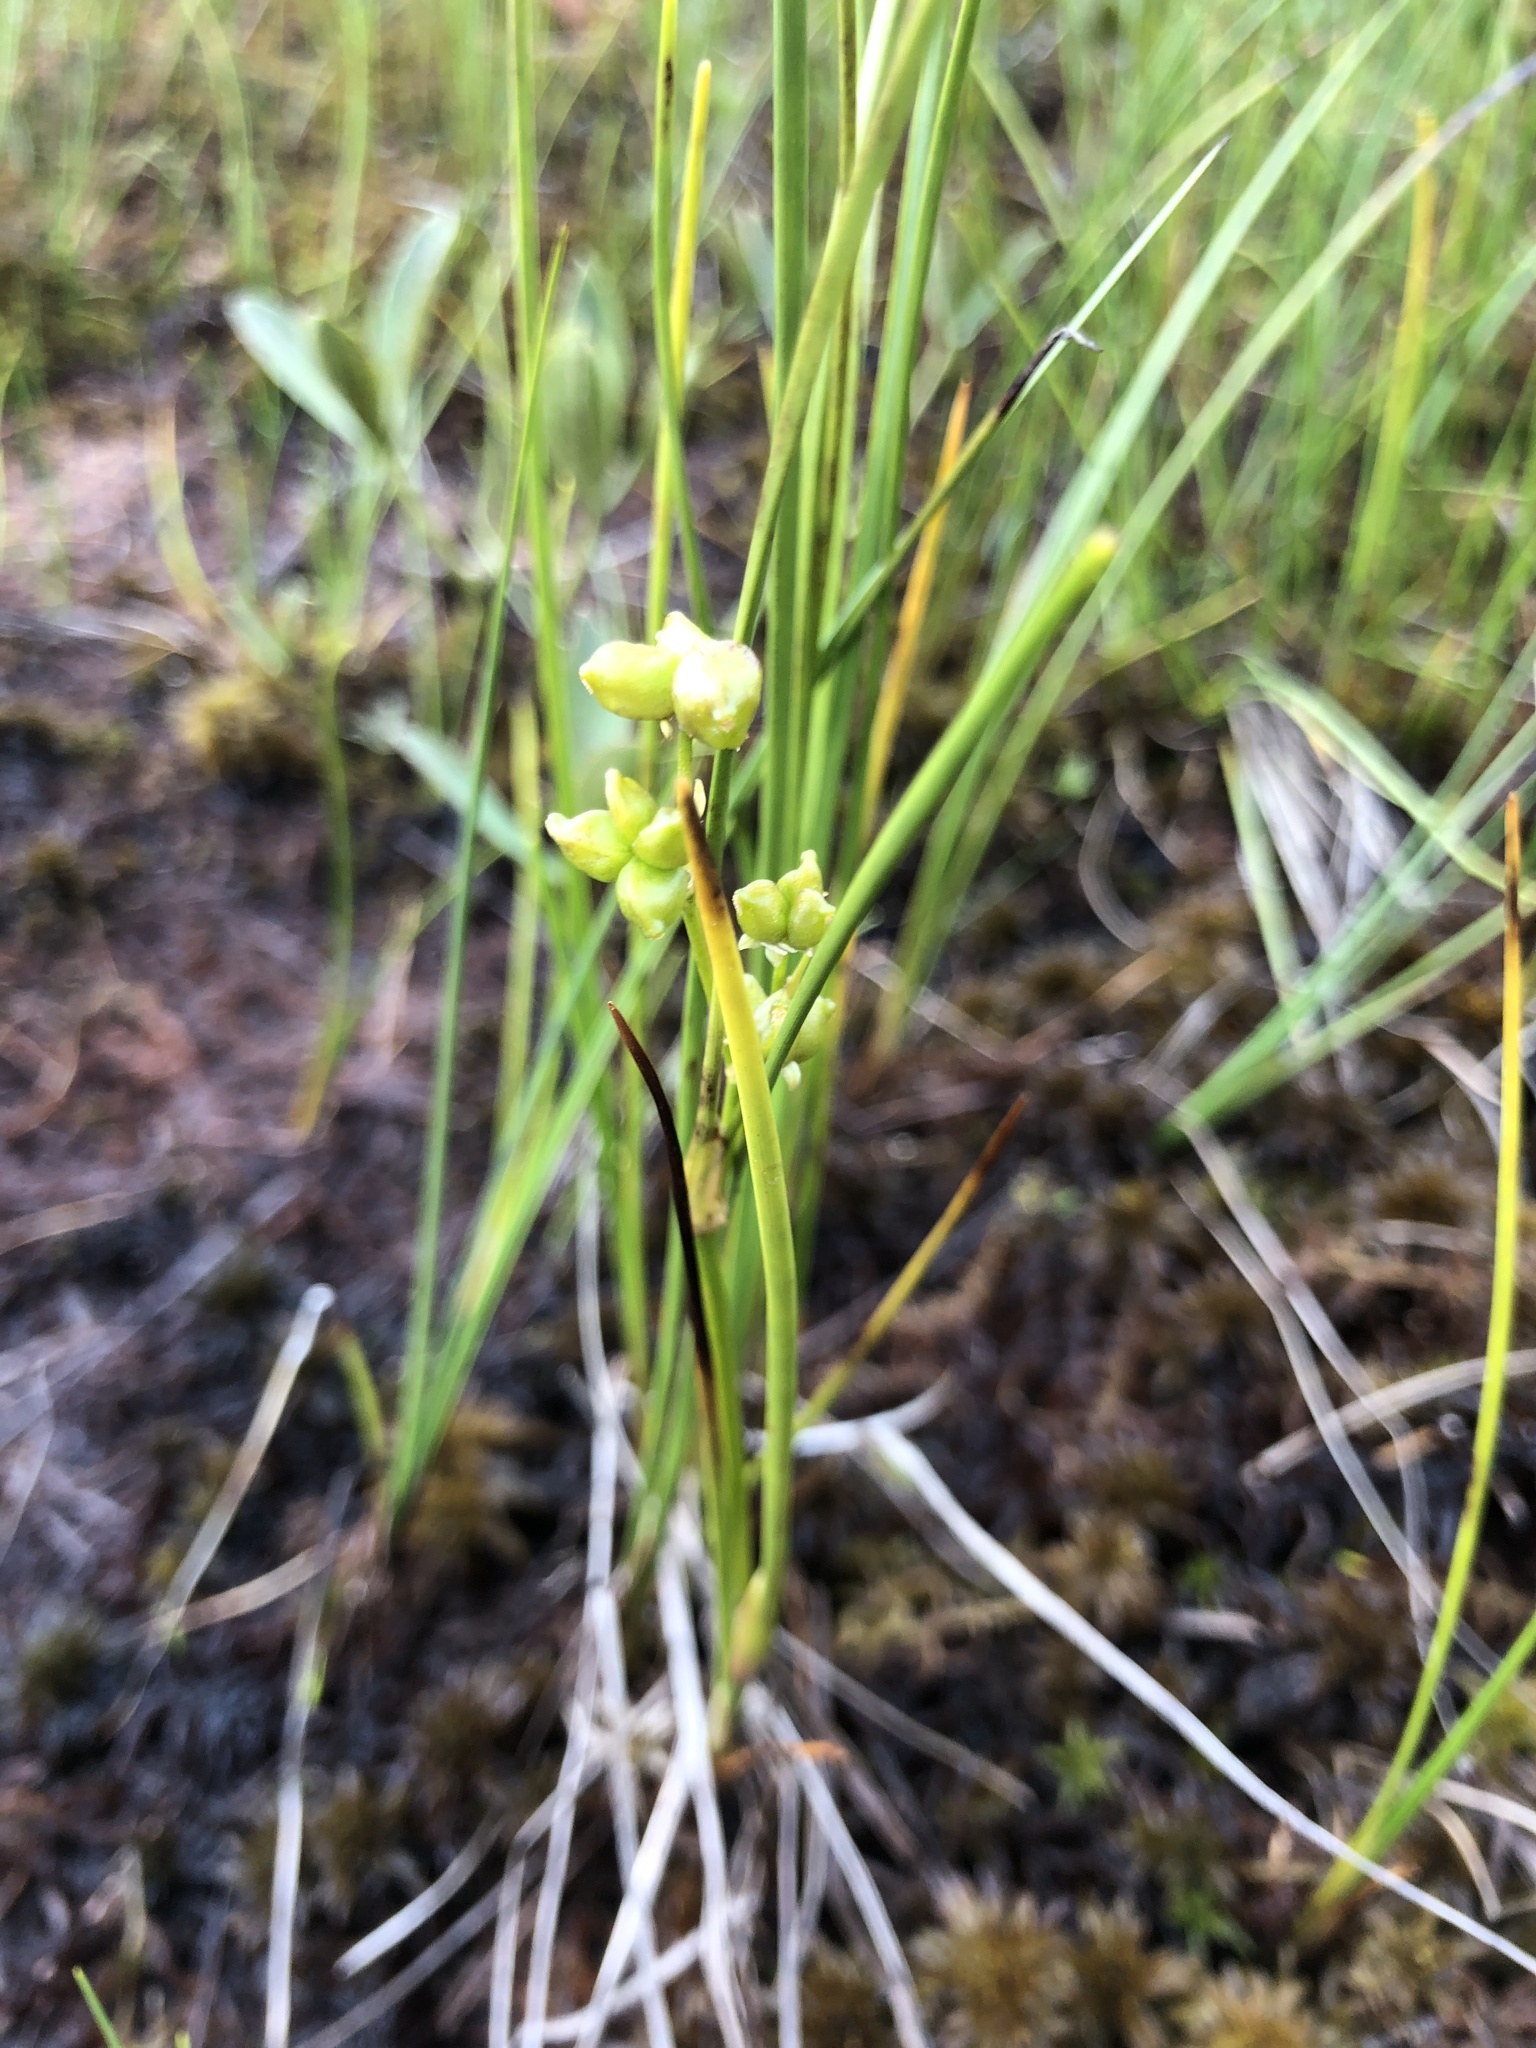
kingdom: Plantae
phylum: Tracheophyta
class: Liliopsida
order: Alismatales
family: Scheuchzeriaceae
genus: Scheuchzeria
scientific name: Scheuchzeria palustris
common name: Rannoch-rush
